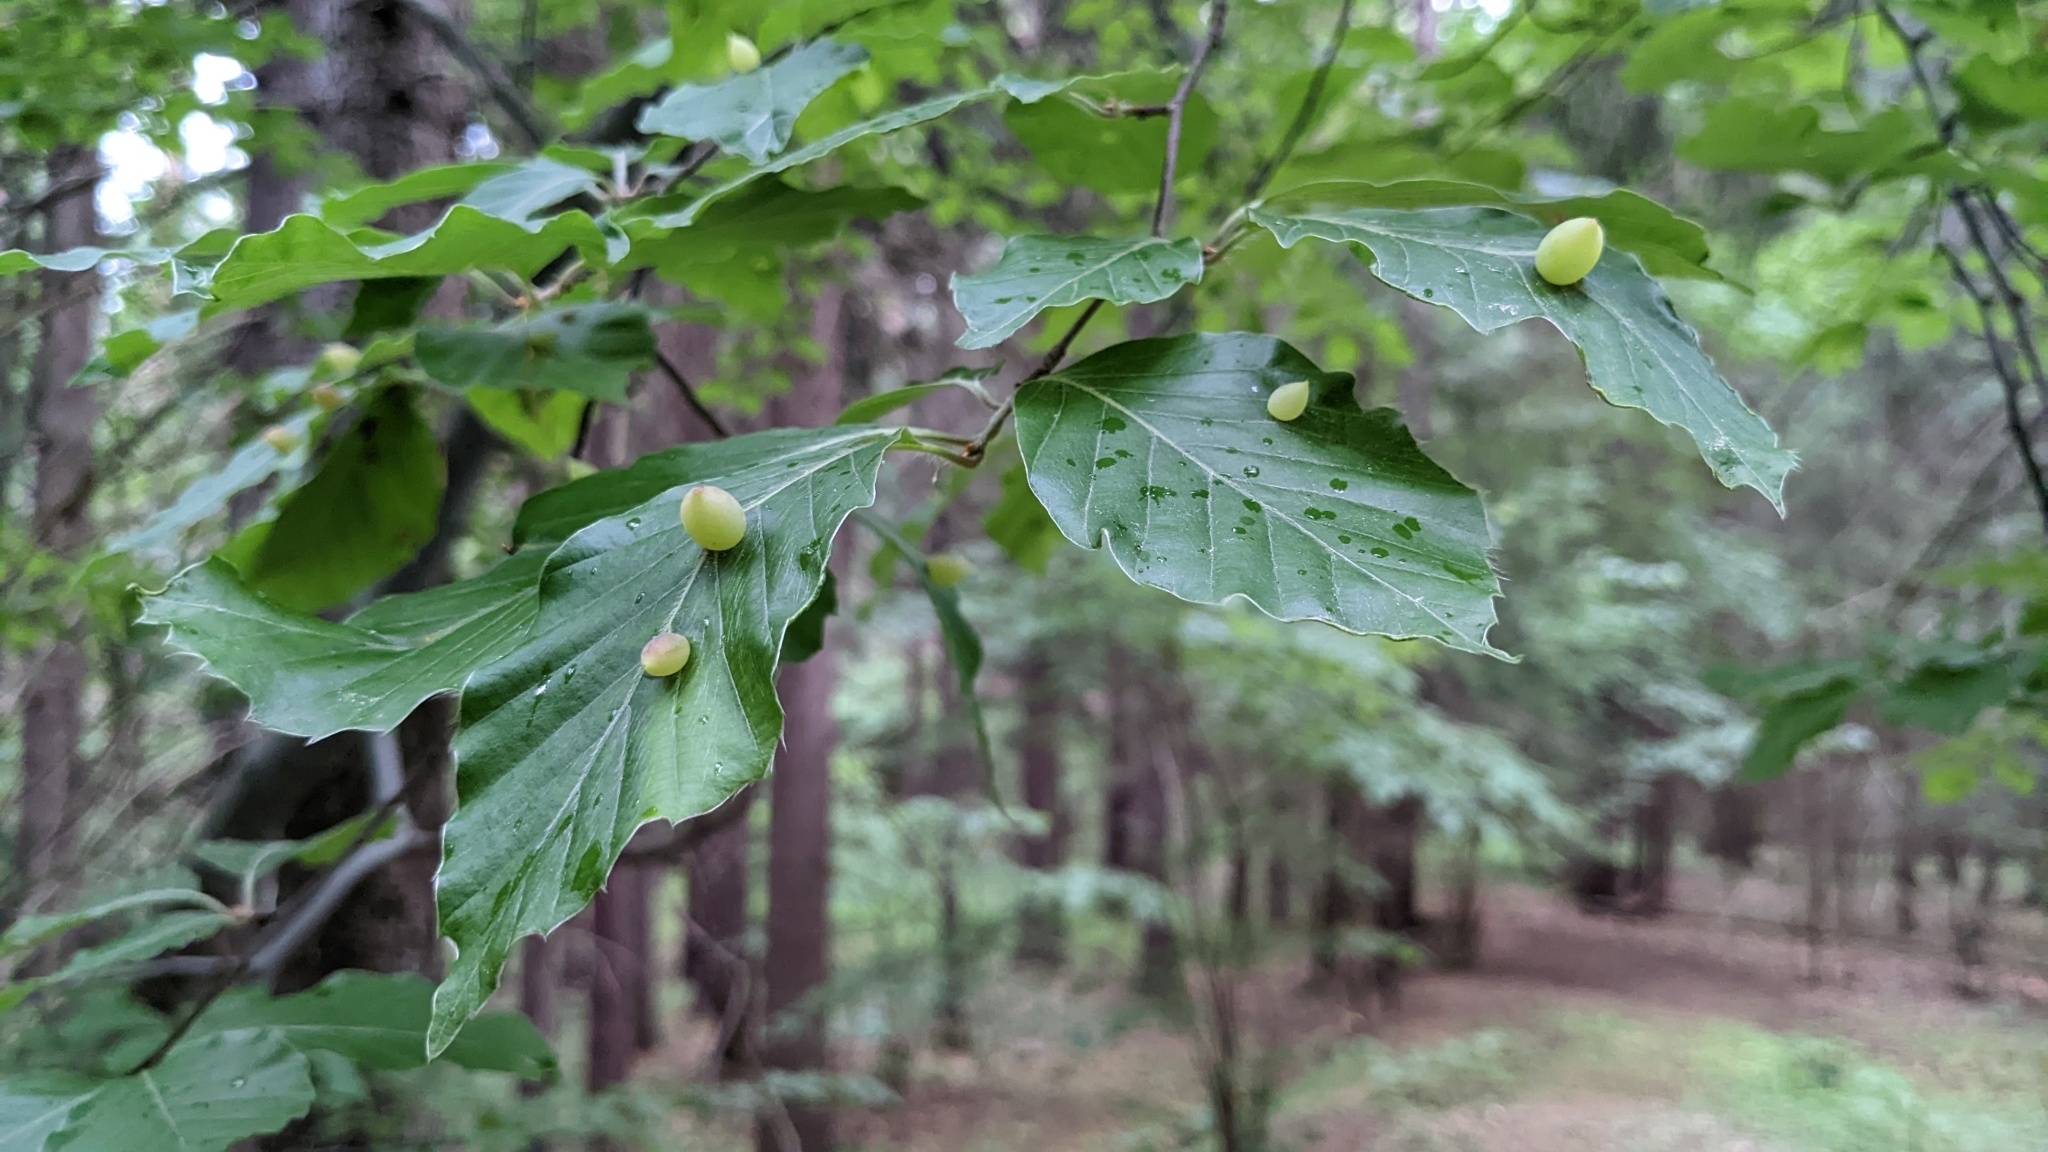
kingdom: Animalia
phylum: Arthropoda
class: Insecta
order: Diptera
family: Cecidomyiidae
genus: Mikiola
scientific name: Mikiola fagi
